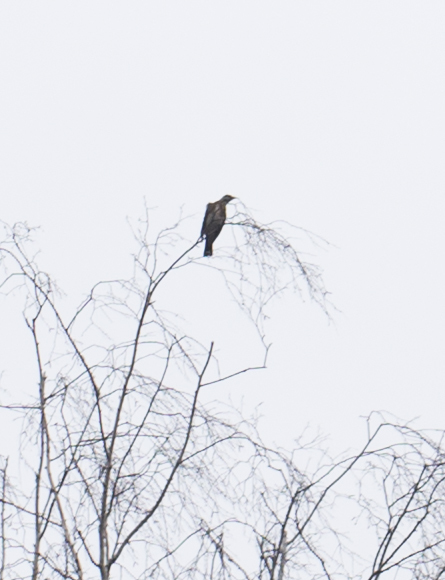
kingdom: Animalia
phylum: Chordata
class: Aves
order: Passeriformes
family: Turdidae
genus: Turdus
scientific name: Turdus pilaris
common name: Fieldfare
